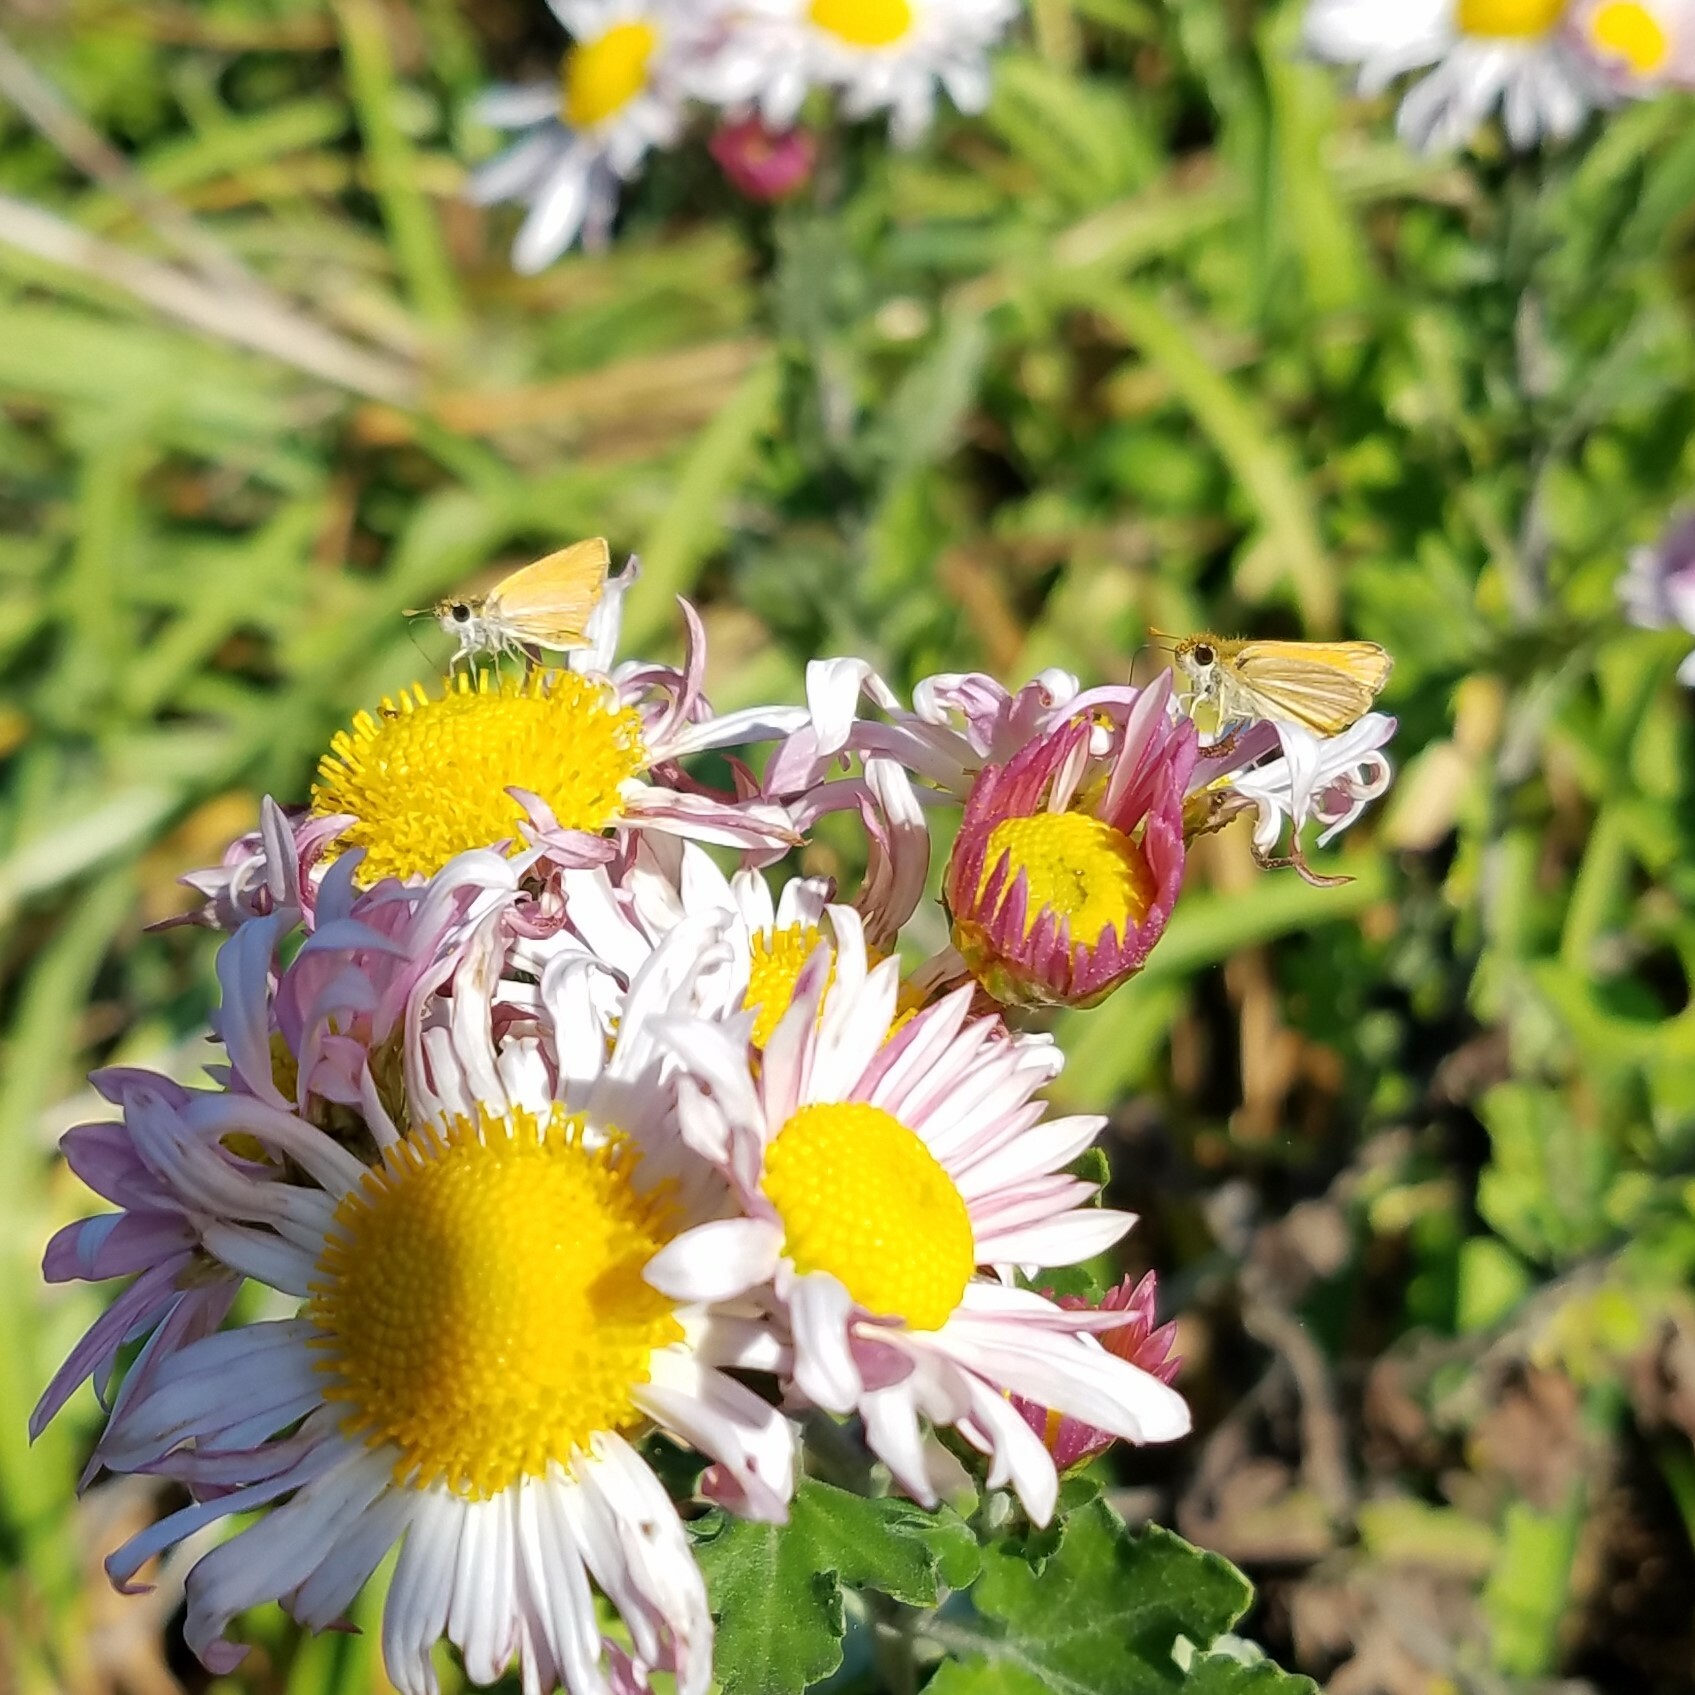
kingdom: Animalia
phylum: Arthropoda
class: Insecta
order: Lepidoptera
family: Hesperiidae
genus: Copaeodes
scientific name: Copaeodes minima
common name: Southern skipperling
